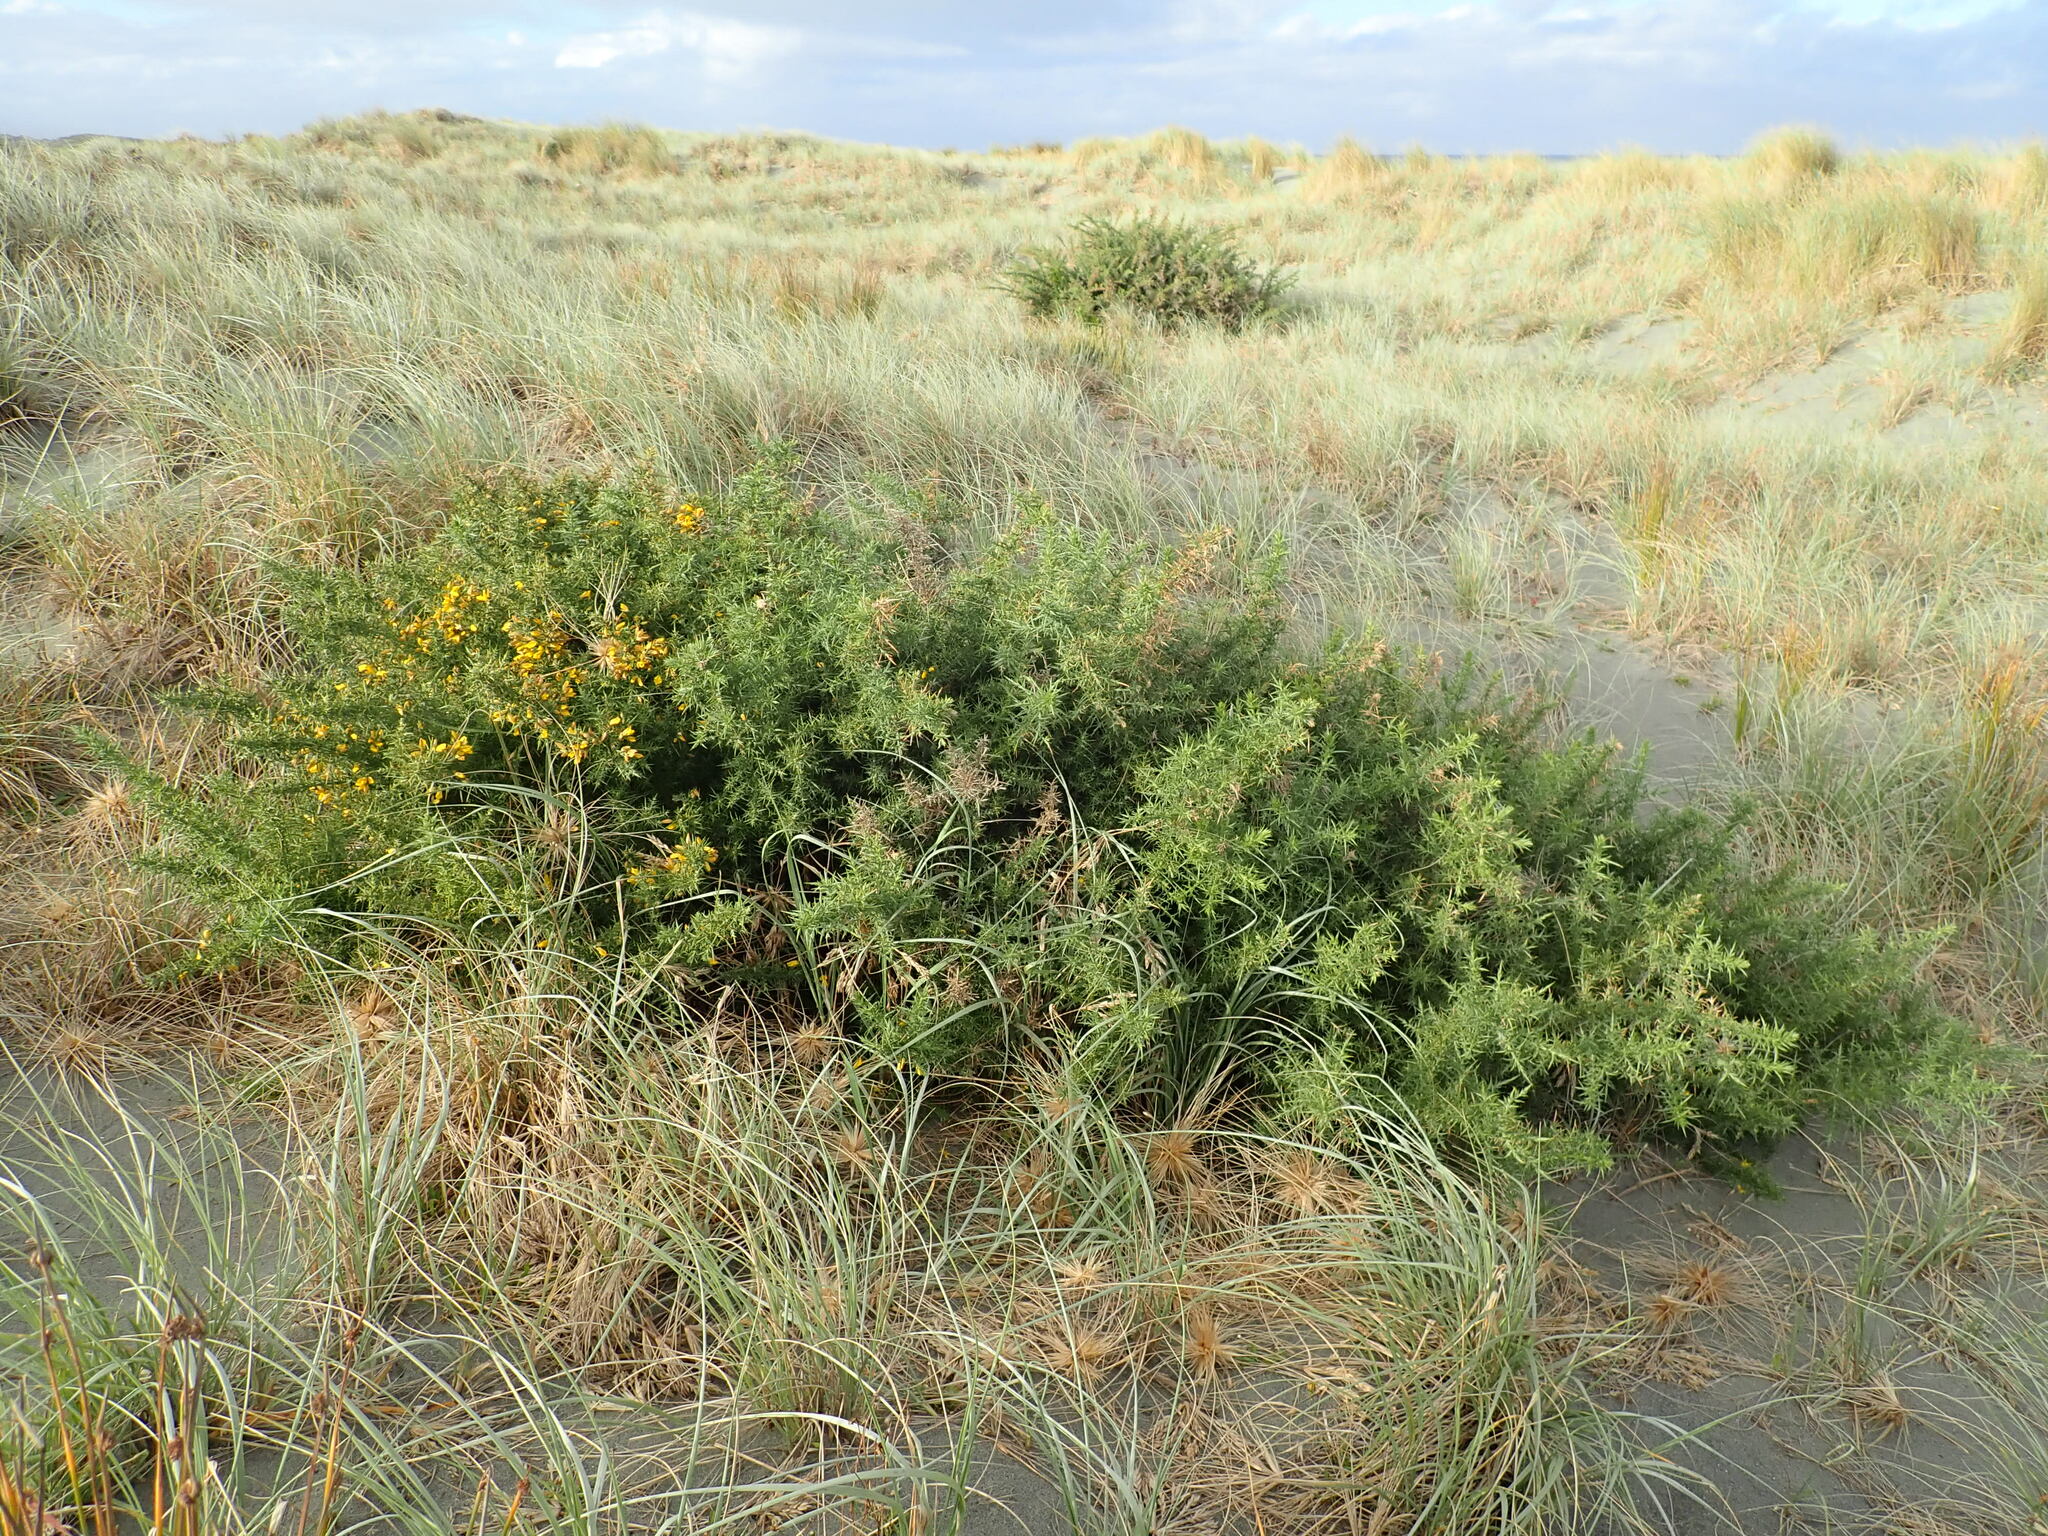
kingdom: Plantae
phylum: Tracheophyta
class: Magnoliopsida
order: Fabales
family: Fabaceae
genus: Ulex
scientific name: Ulex europaeus
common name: Common gorse
